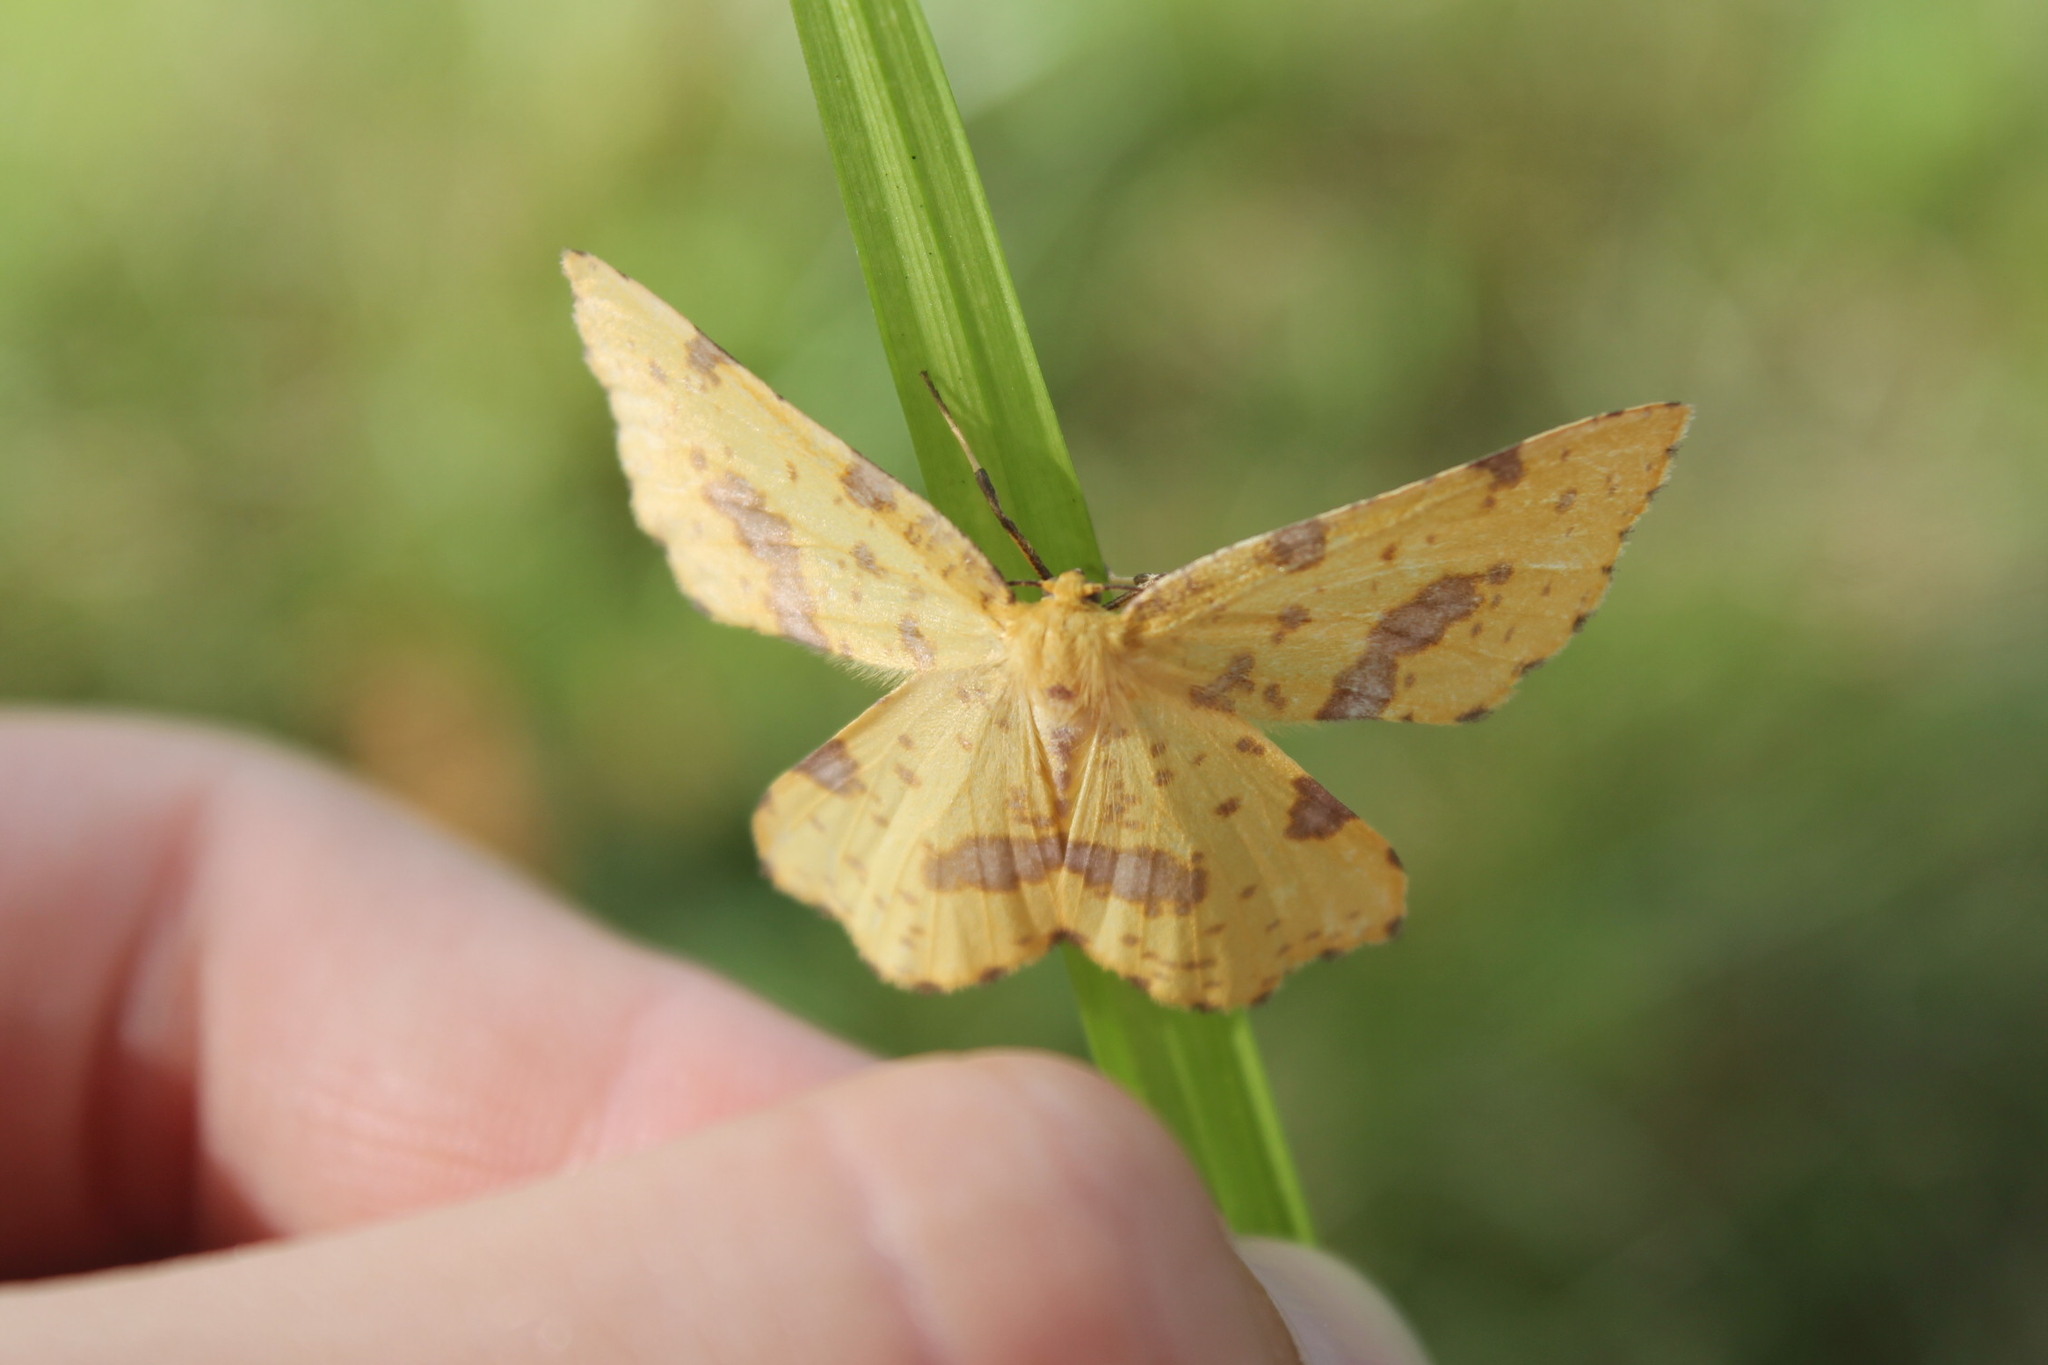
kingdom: Animalia
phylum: Arthropoda
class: Insecta
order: Lepidoptera
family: Geometridae
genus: Xanthotype
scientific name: Xanthotype
